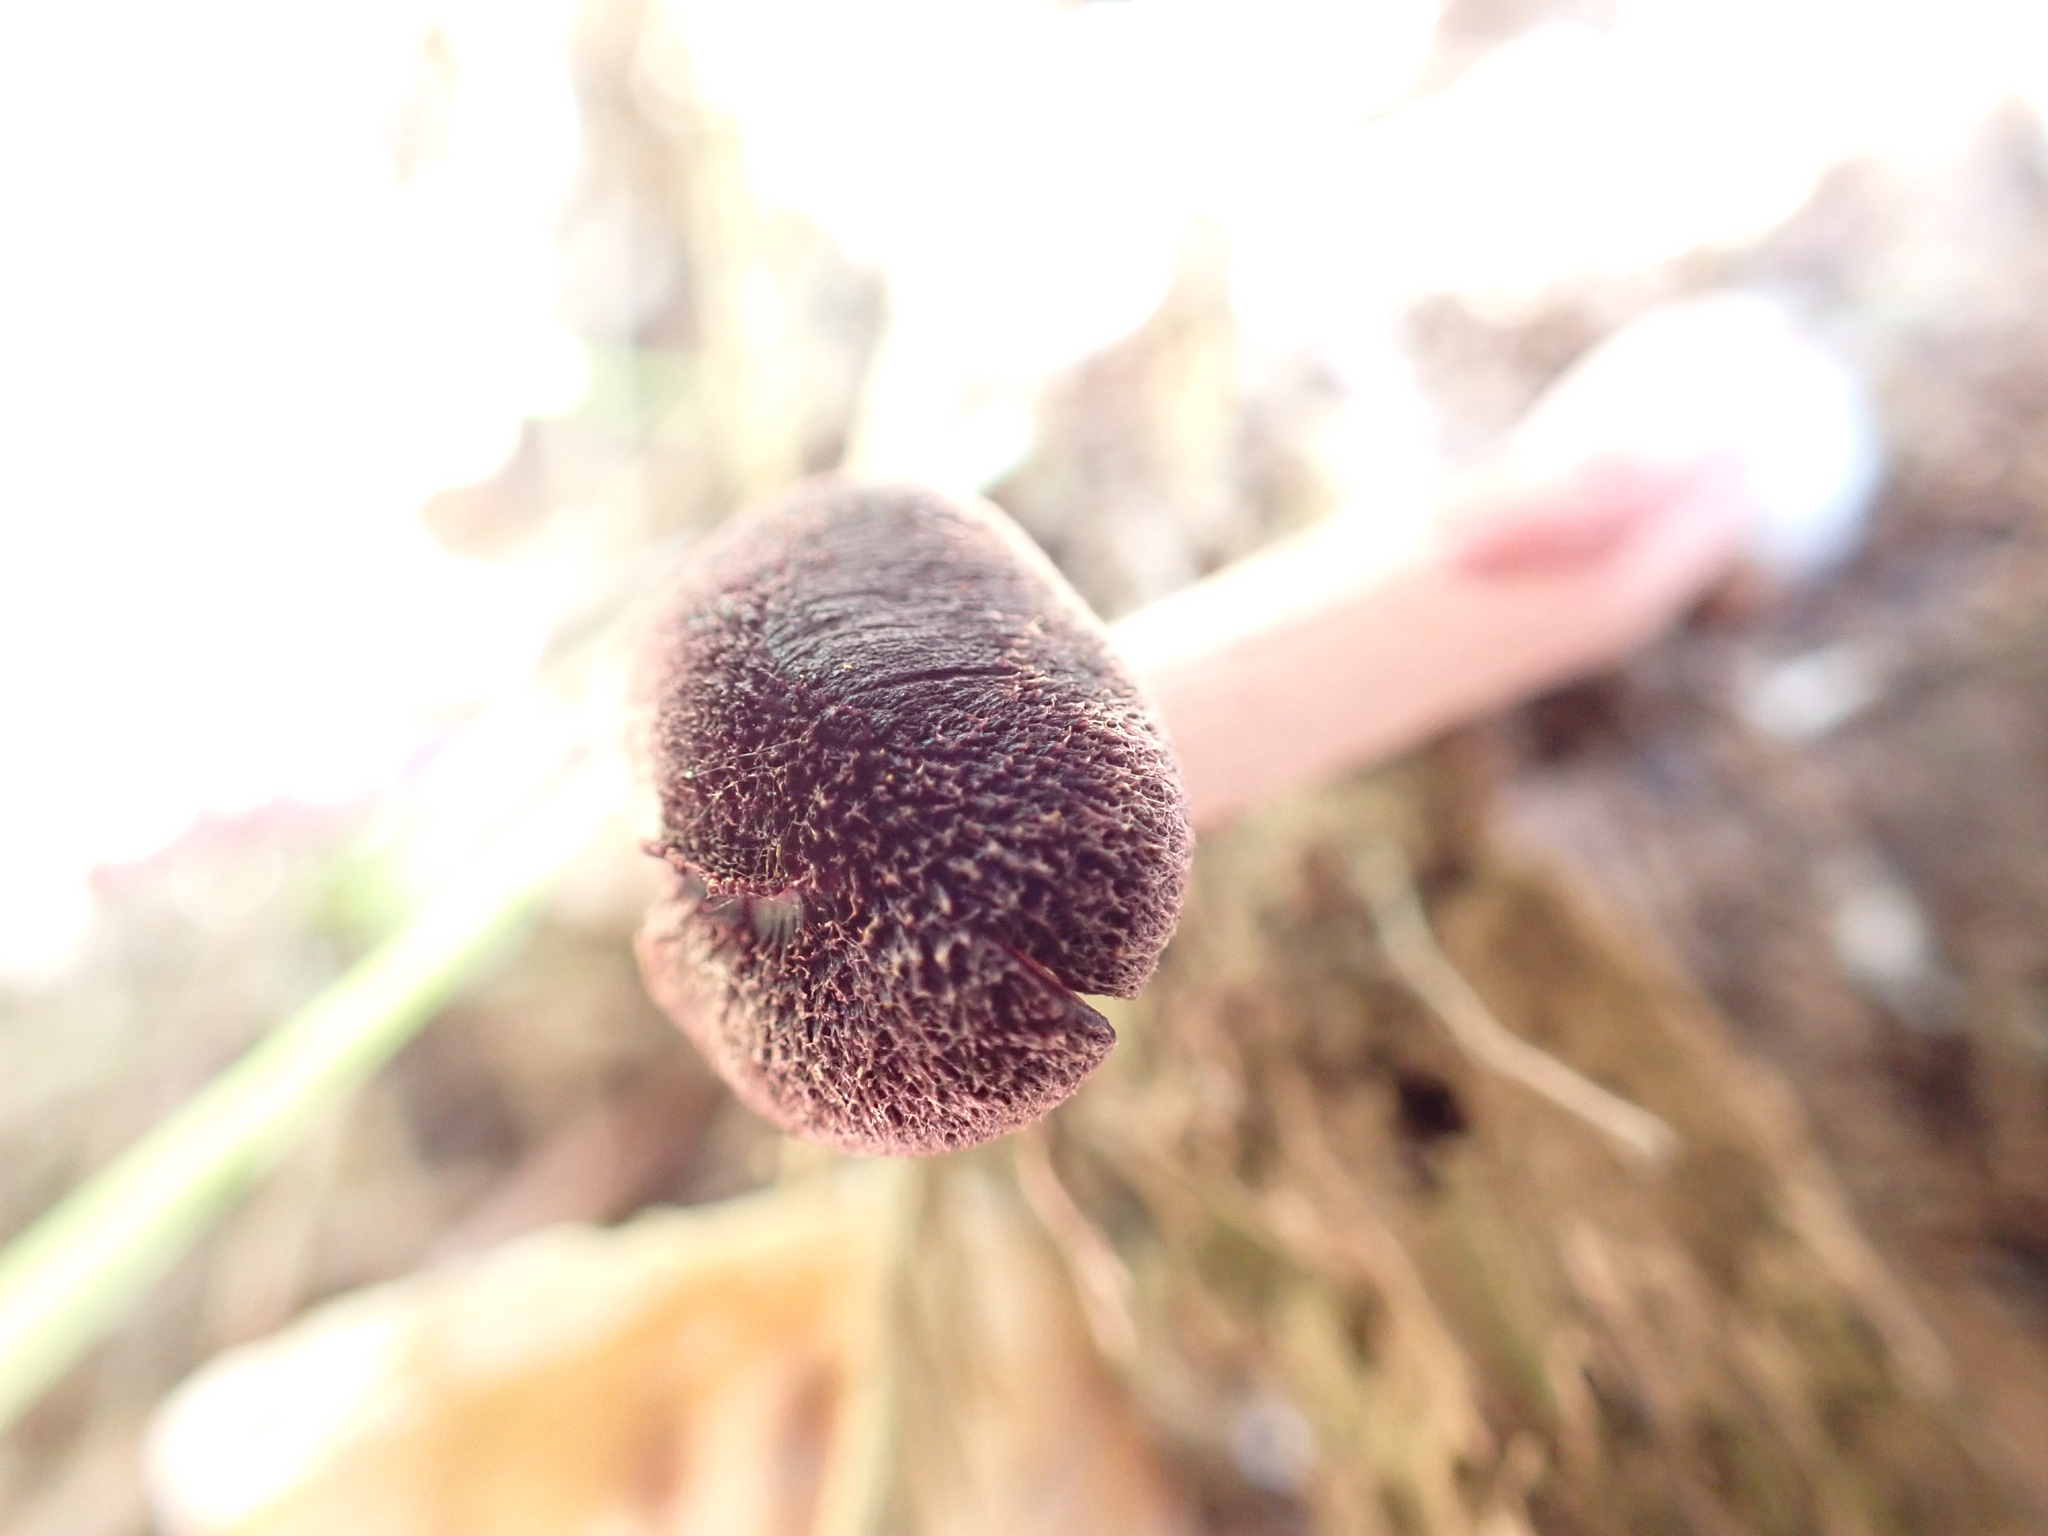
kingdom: Fungi
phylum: Basidiomycota
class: Agaricomycetes
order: Agaricales
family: Hymenogastraceae
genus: Gymnopilus
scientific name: Gymnopilus purpuratus
